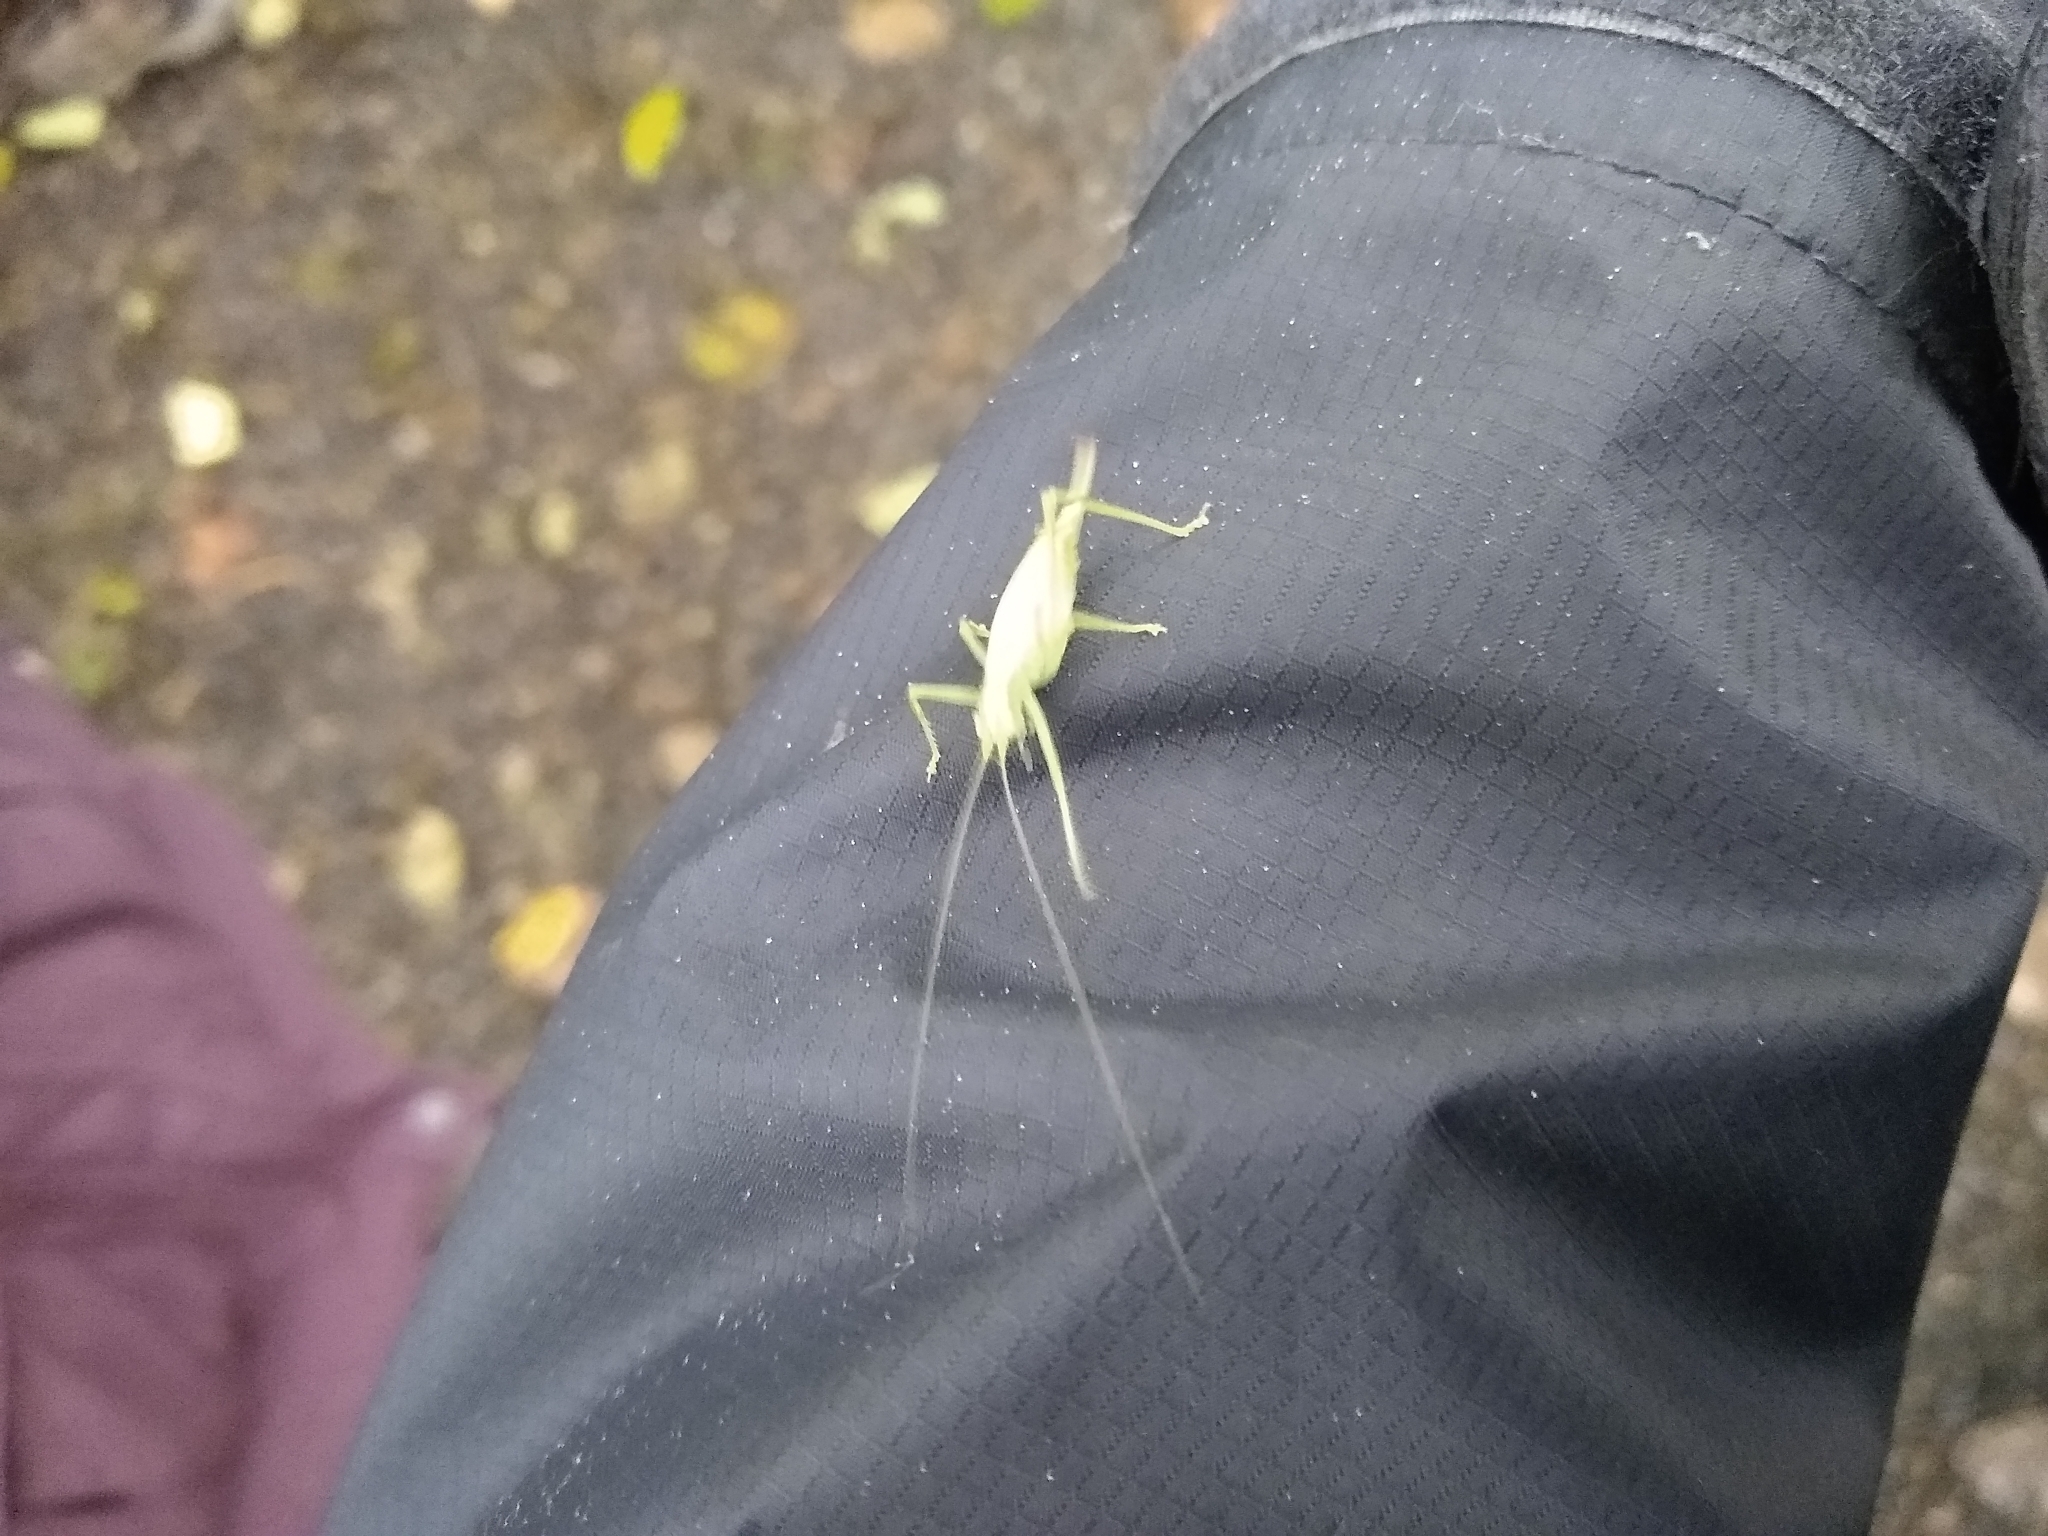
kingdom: Animalia
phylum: Arthropoda
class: Insecta
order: Orthoptera
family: Tettigoniidae
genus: Meconema
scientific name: Meconema meridionale
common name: Southern oak bush-cricket
